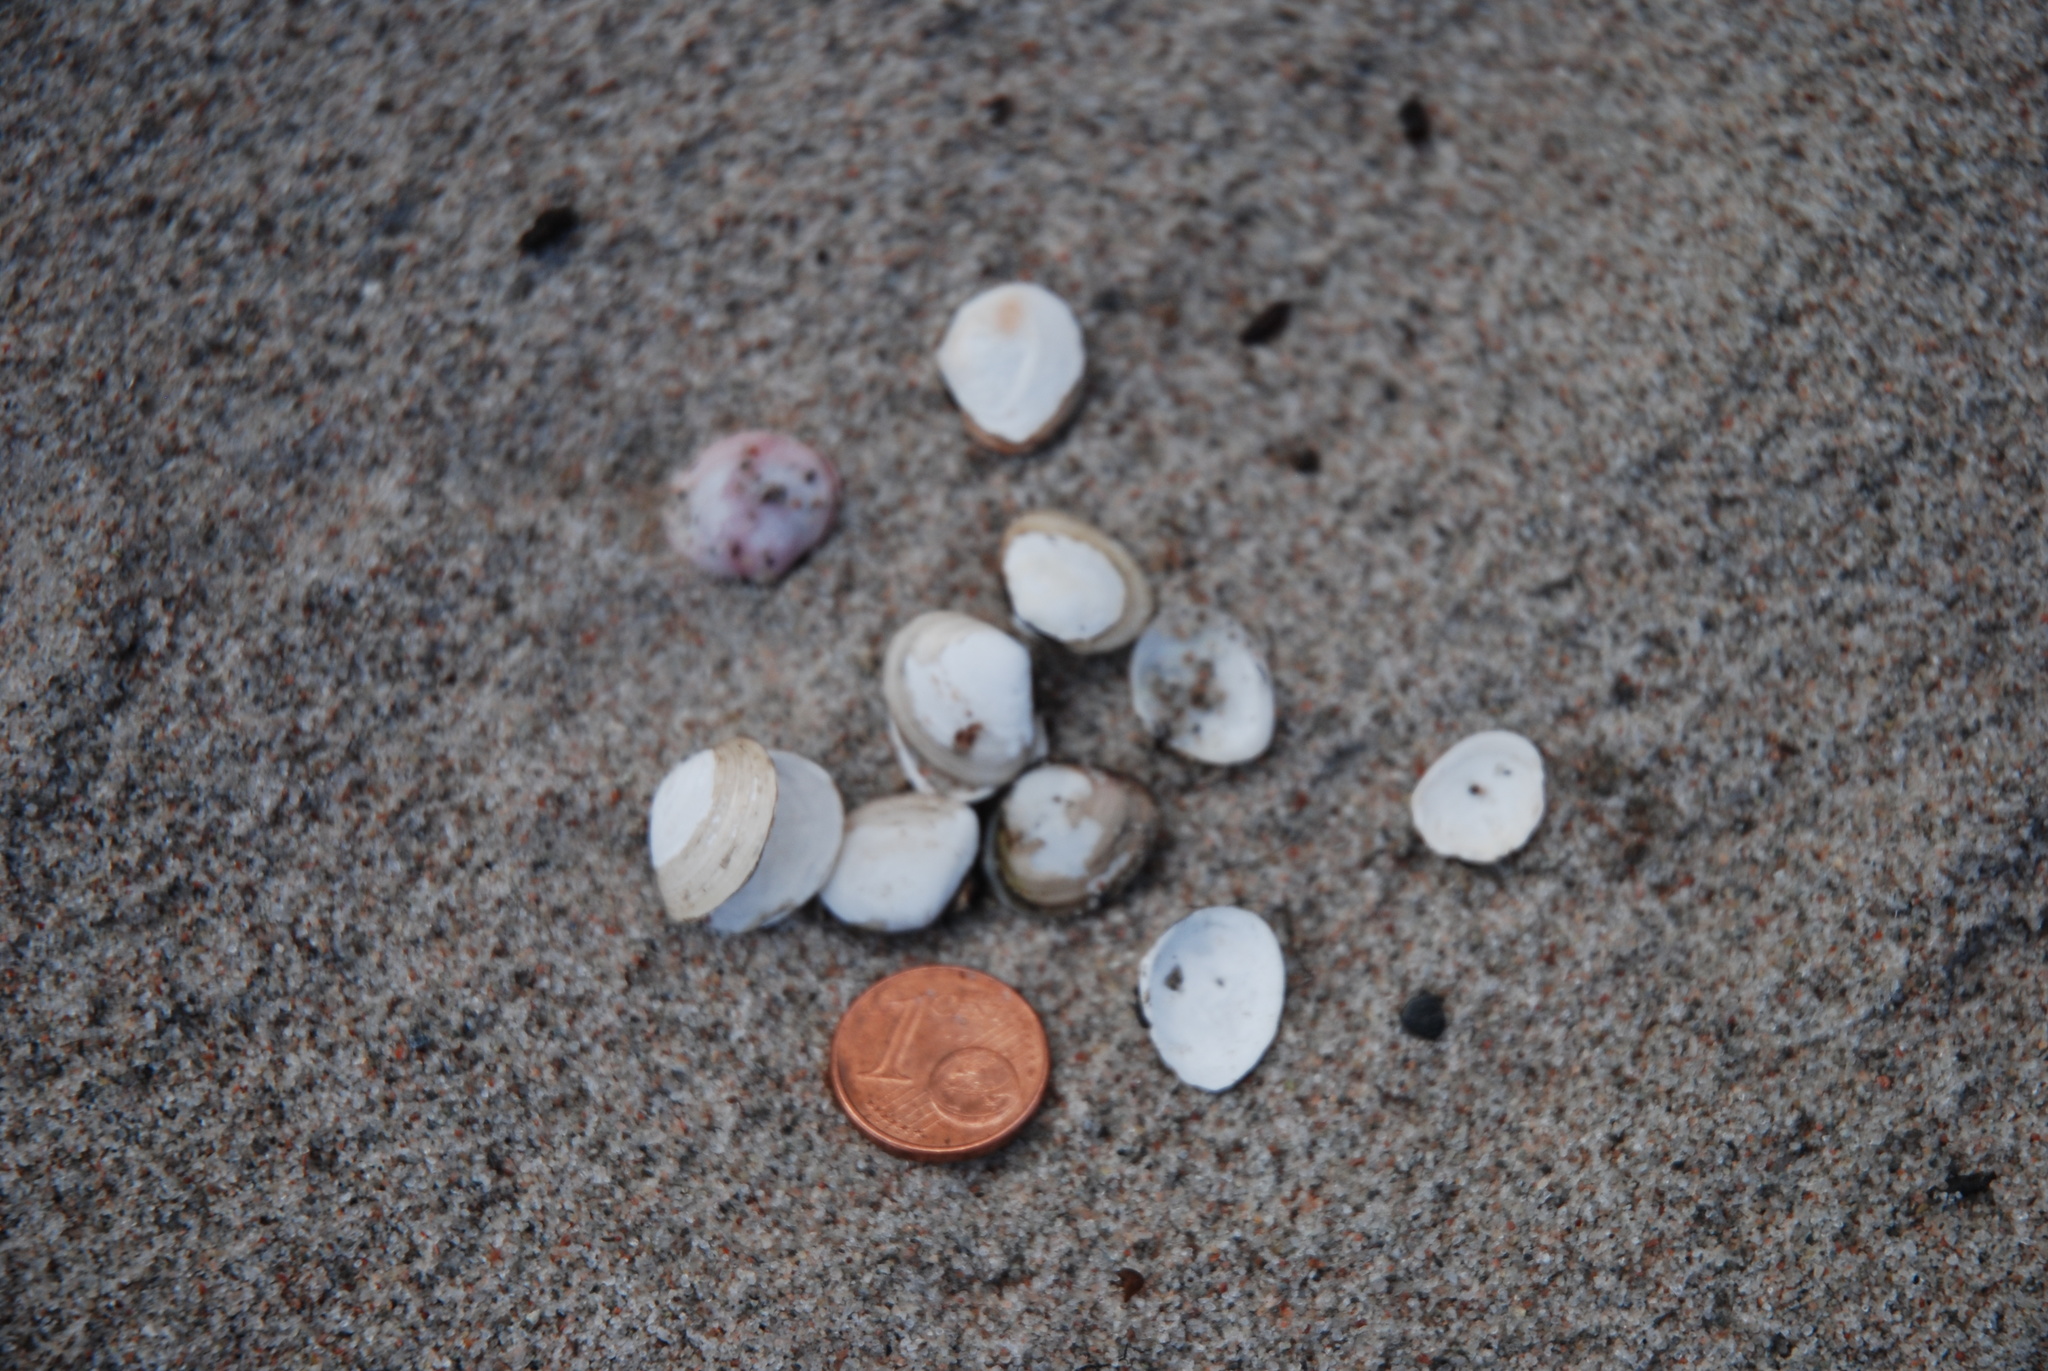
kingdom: Animalia
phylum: Mollusca
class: Bivalvia
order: Cardiida
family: Tellinidae
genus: Macoma
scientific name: Macoma balthica
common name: Baltic tellin
